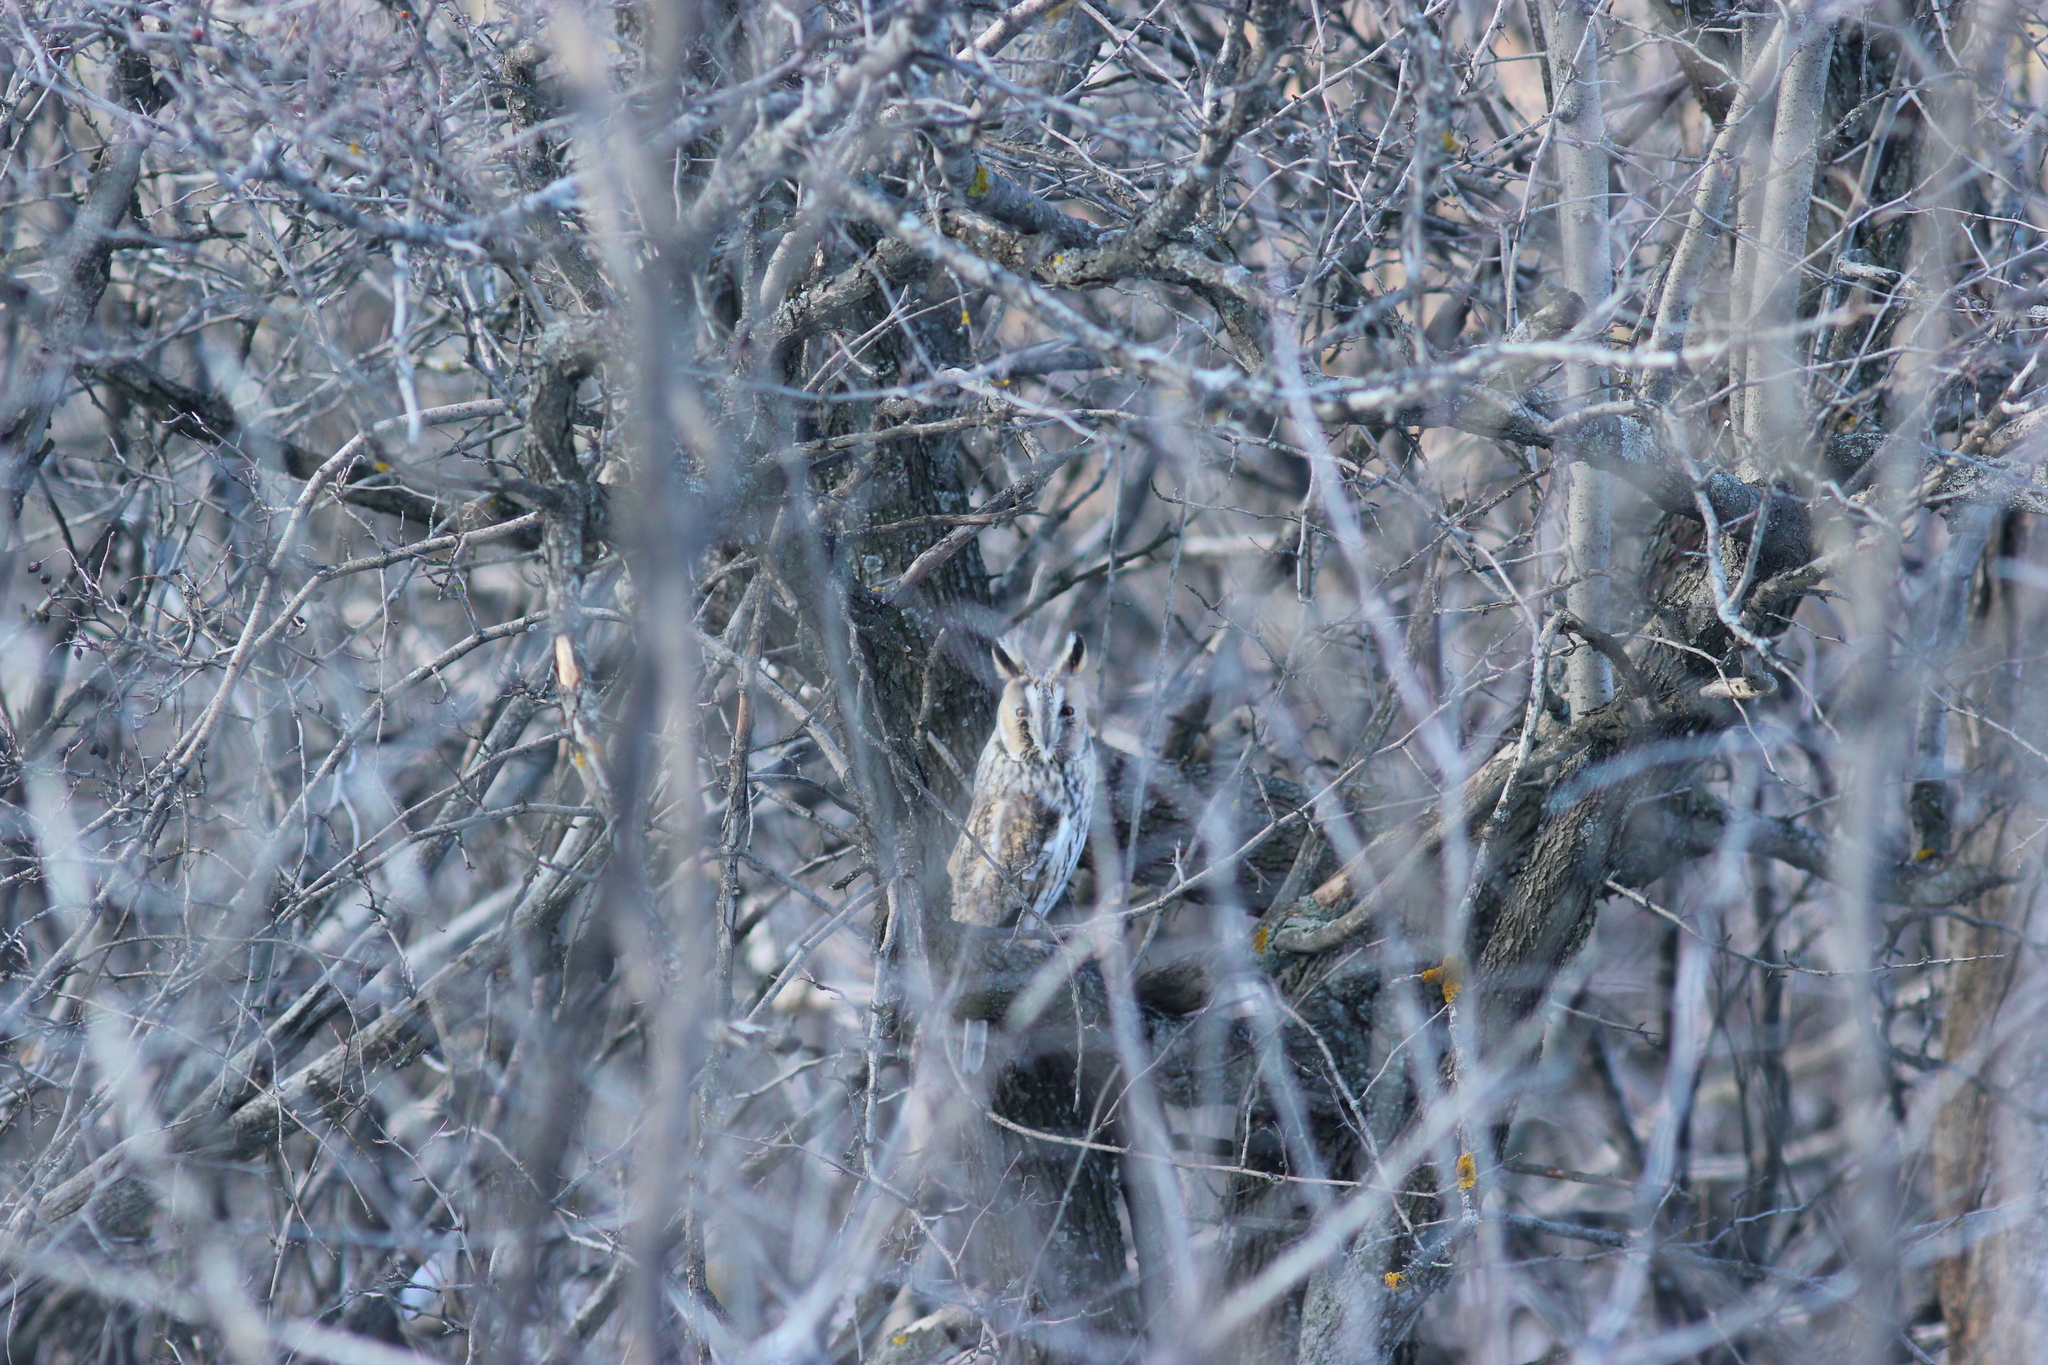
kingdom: Animalia
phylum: Chordata
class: Aves
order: Strigiformes
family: Strigidae
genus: Asio
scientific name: Asio otus
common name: Long-eared owl
